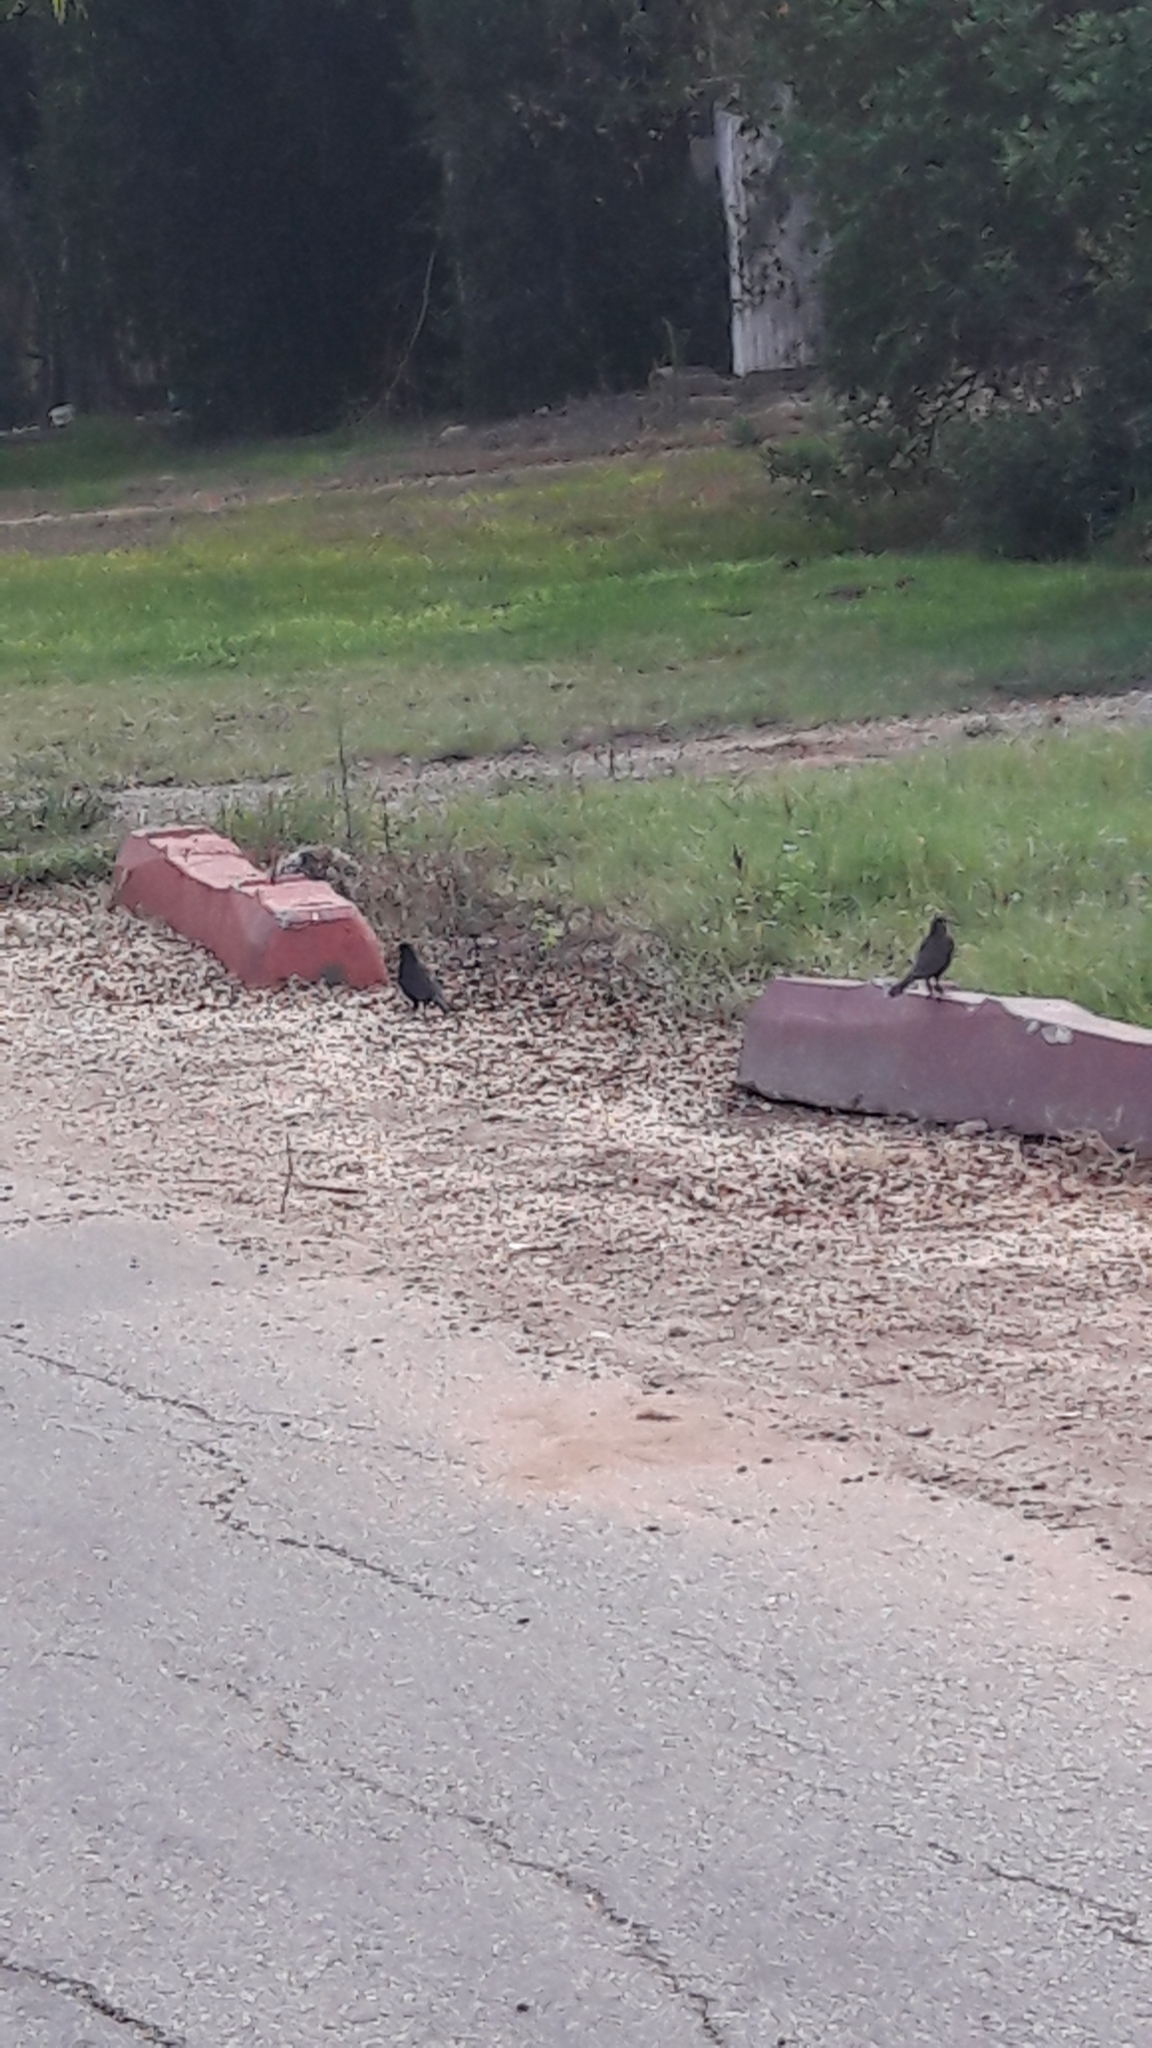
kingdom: Animalia
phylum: Chordata
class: Aves
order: Passeriformes
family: Turdidae
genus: Turdus
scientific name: Turdus merula
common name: Common blackbird
